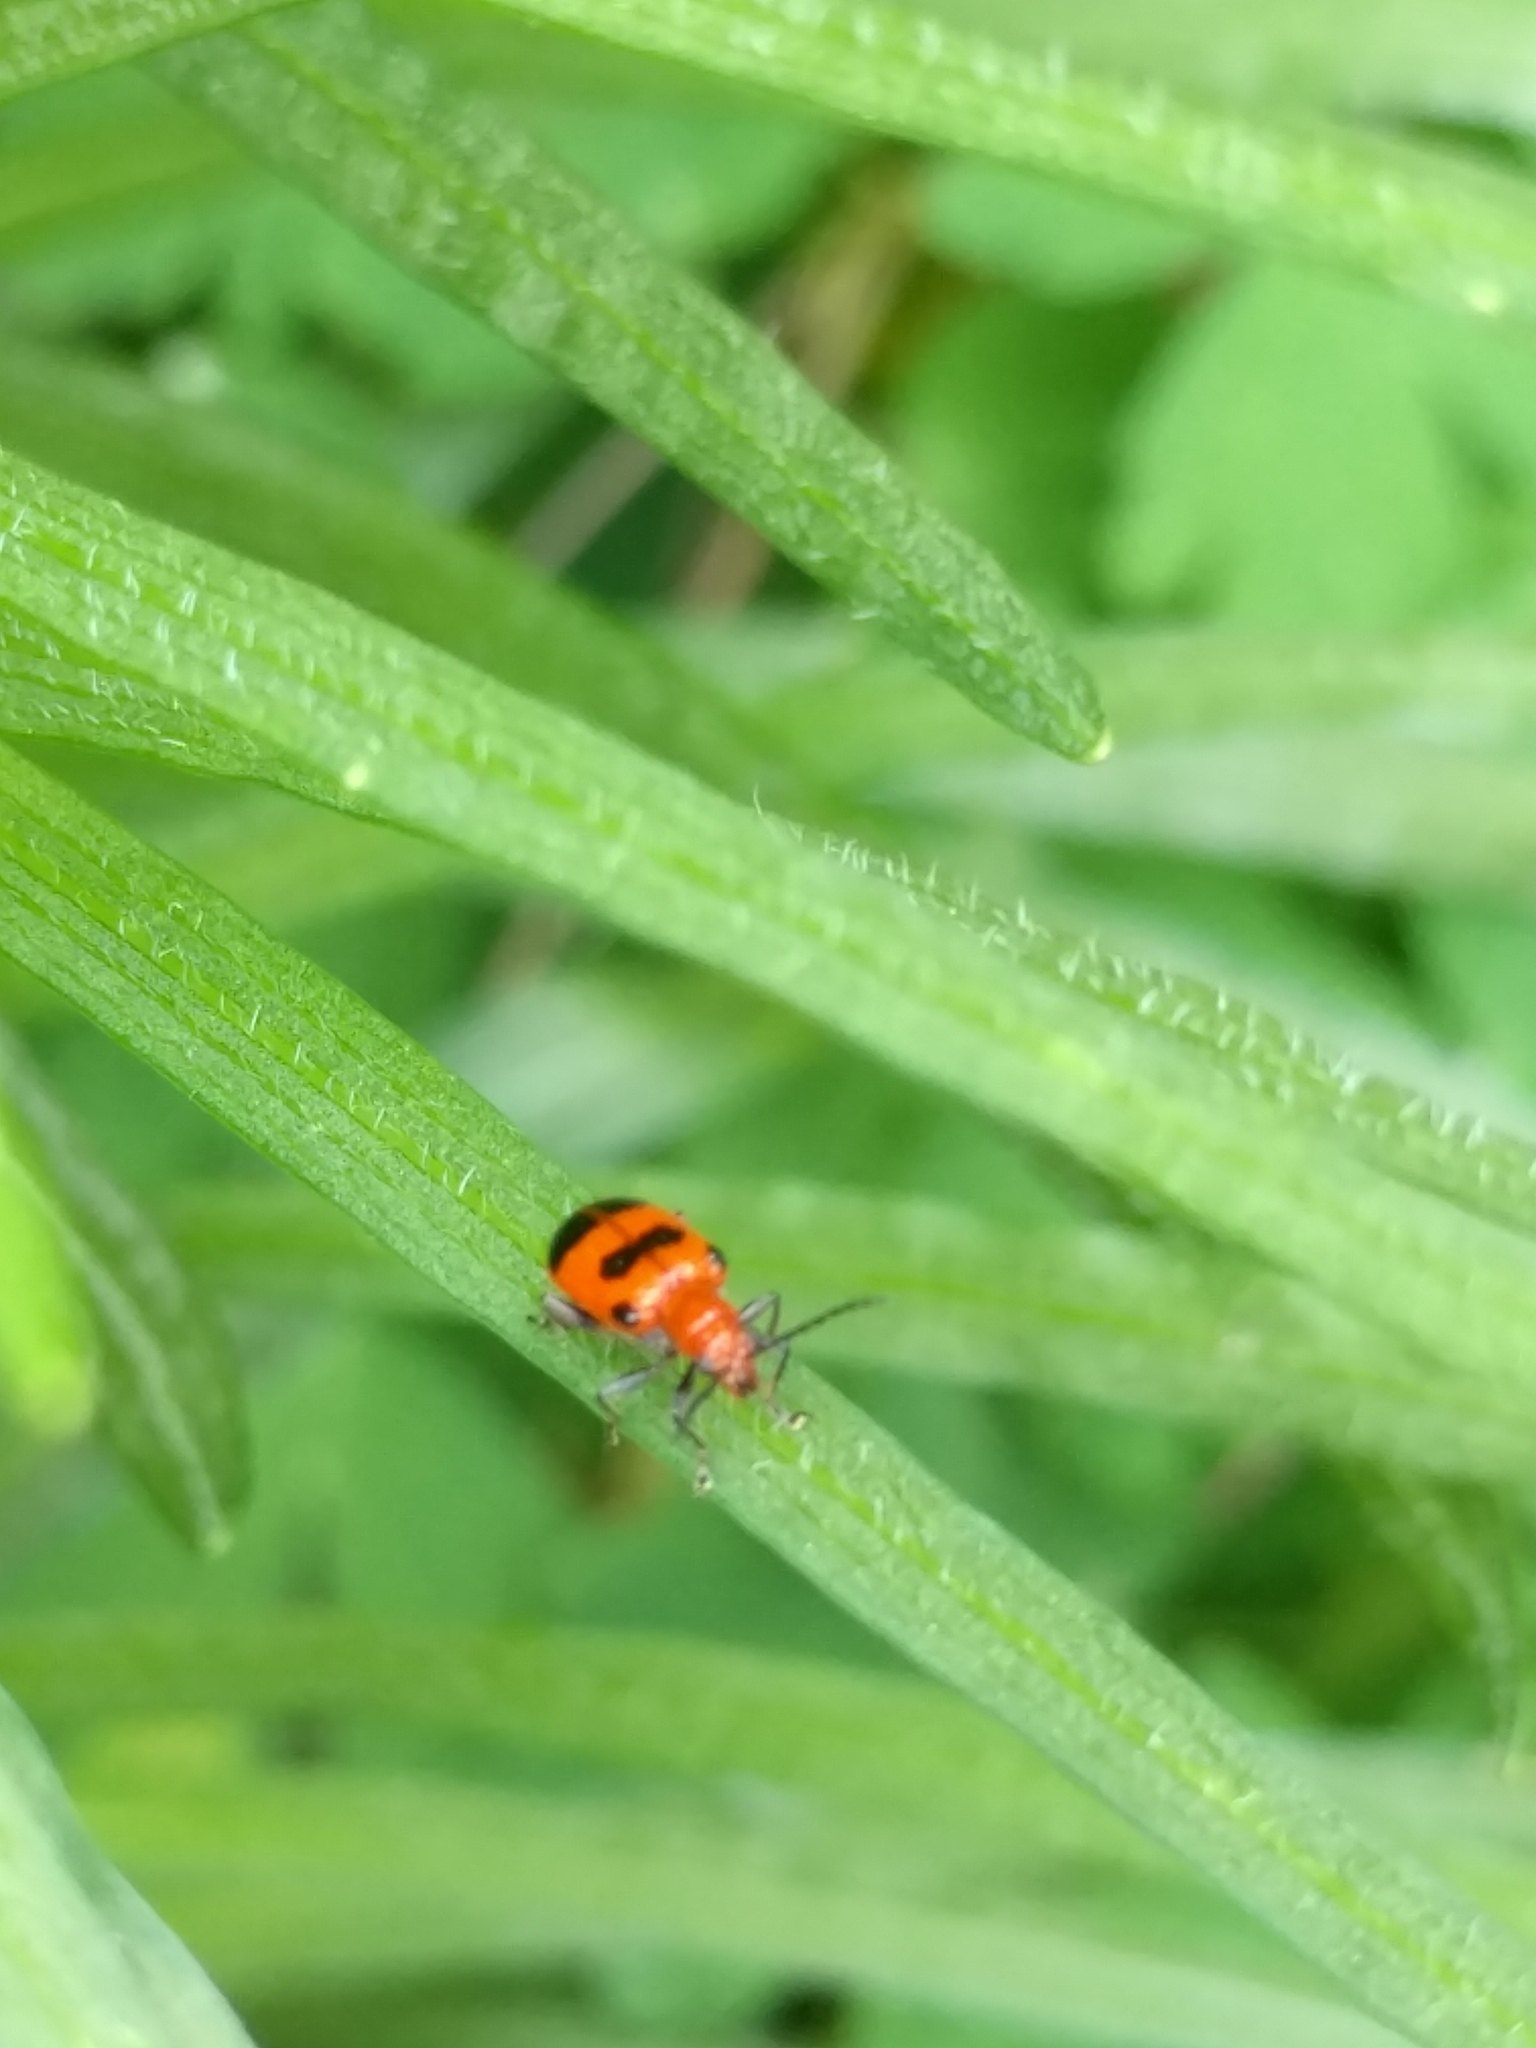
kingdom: Animalia
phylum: Arthropoda
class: Insecta
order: Coleoptera
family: Chrysomelidae
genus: Neolema
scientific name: Neolema sexpunctata
